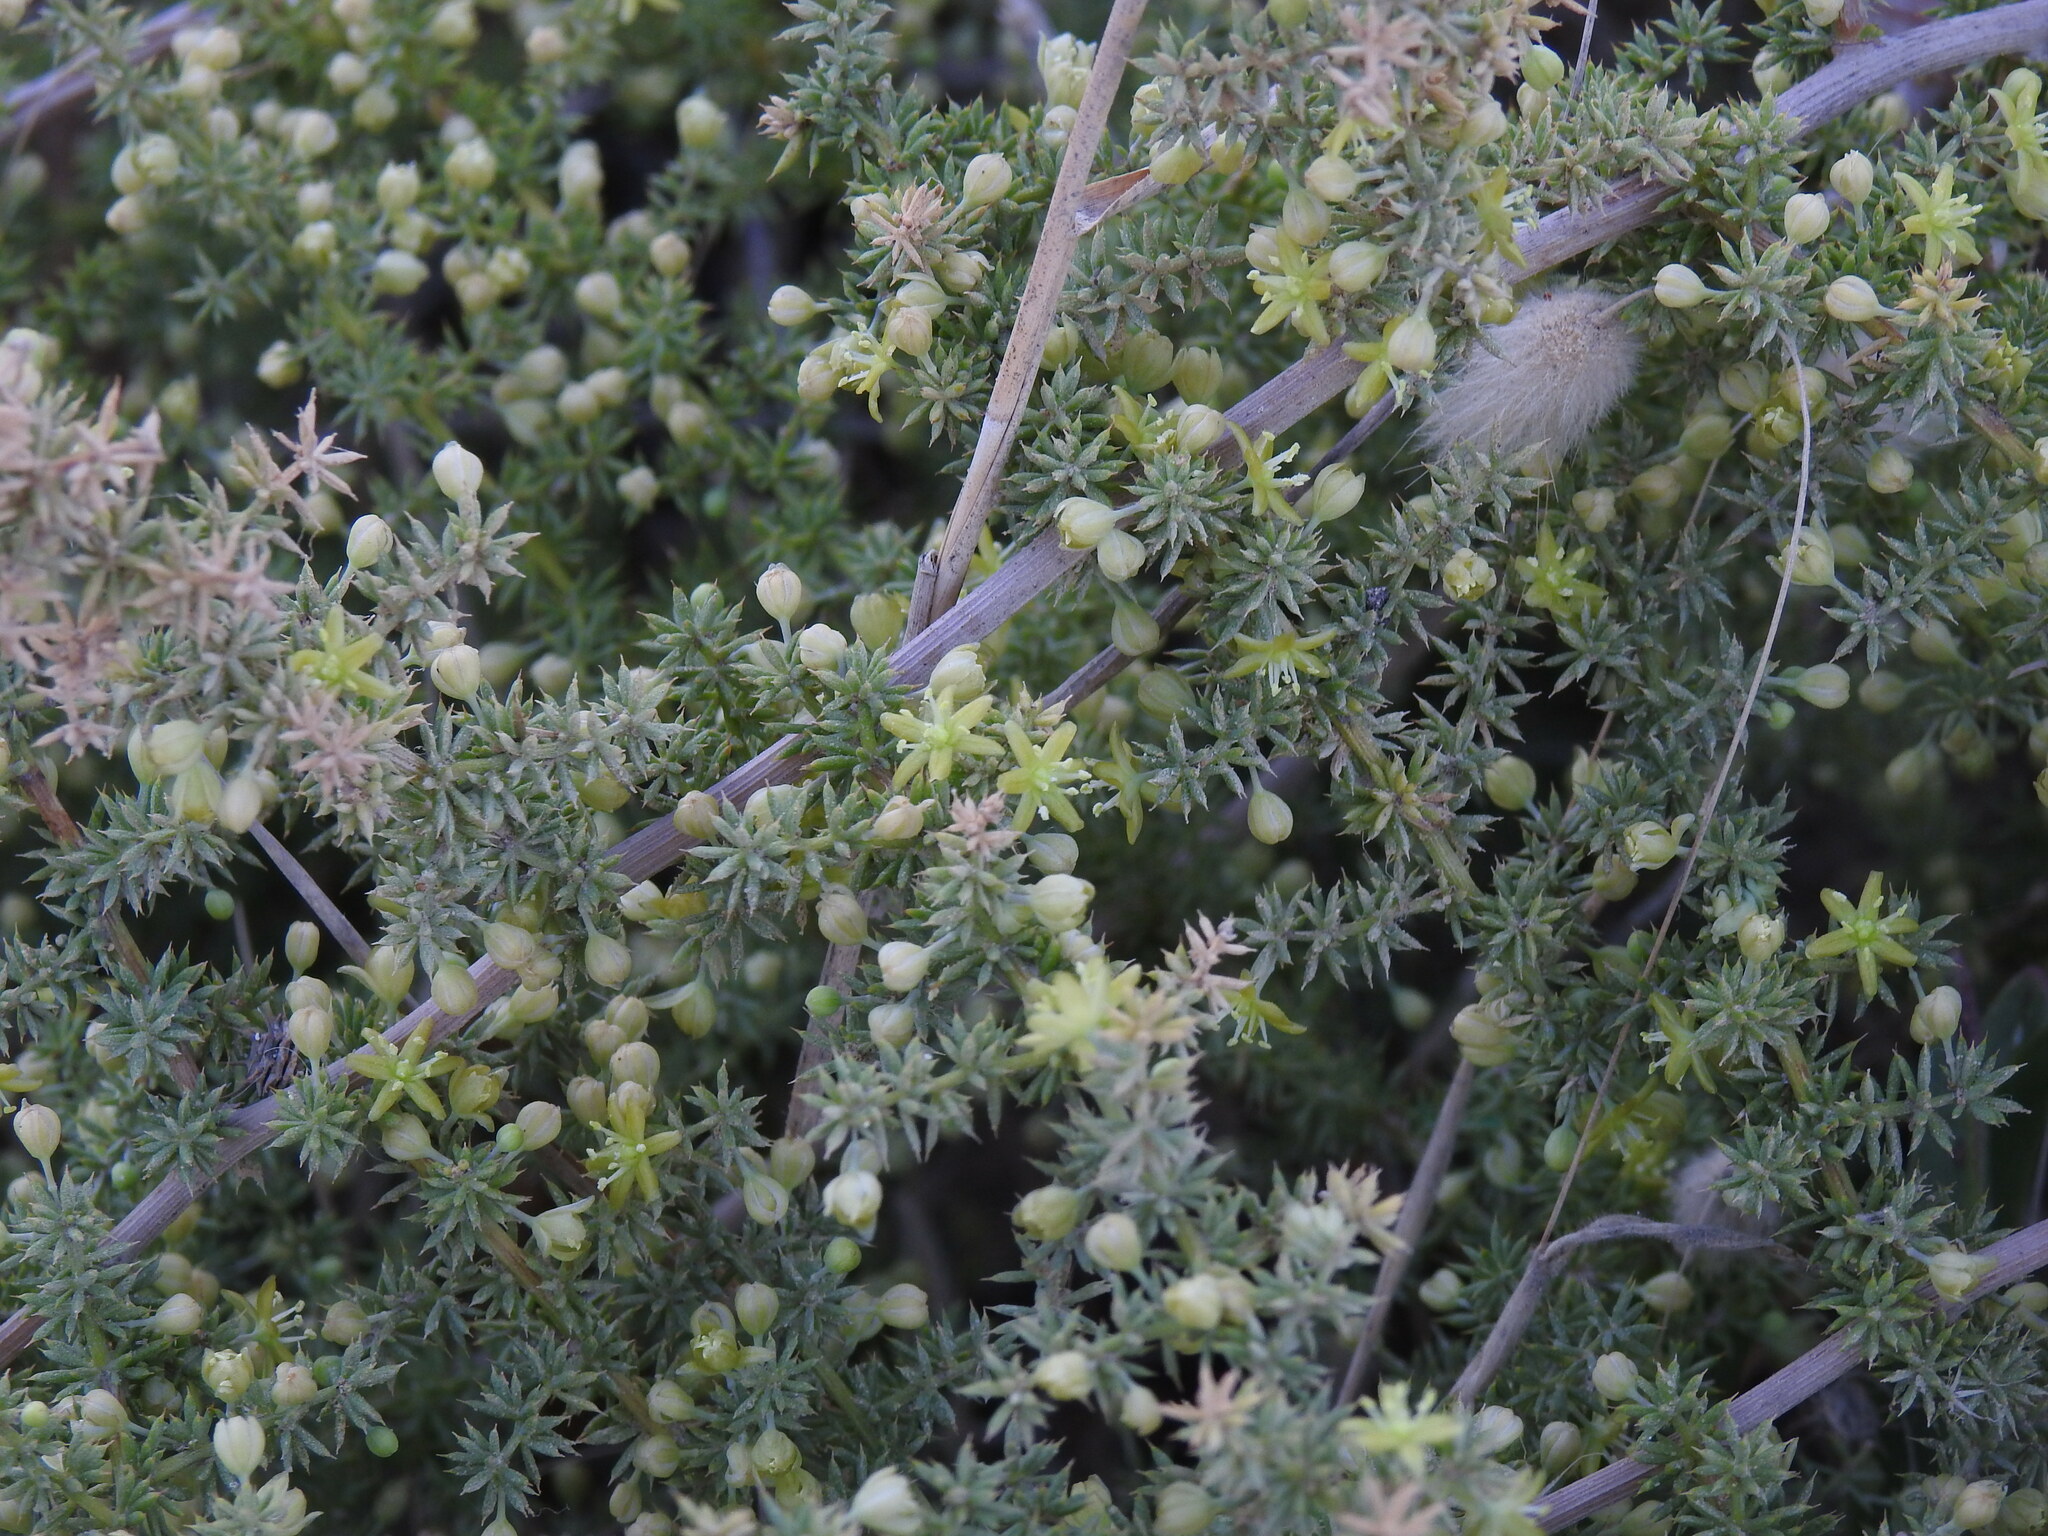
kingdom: Plantae
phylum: Tracheophyta
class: Liliopsida
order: Asparagales
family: Asparagaceae
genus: Asparagus
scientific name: Asparagus acutifolius
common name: Wild asparagus
